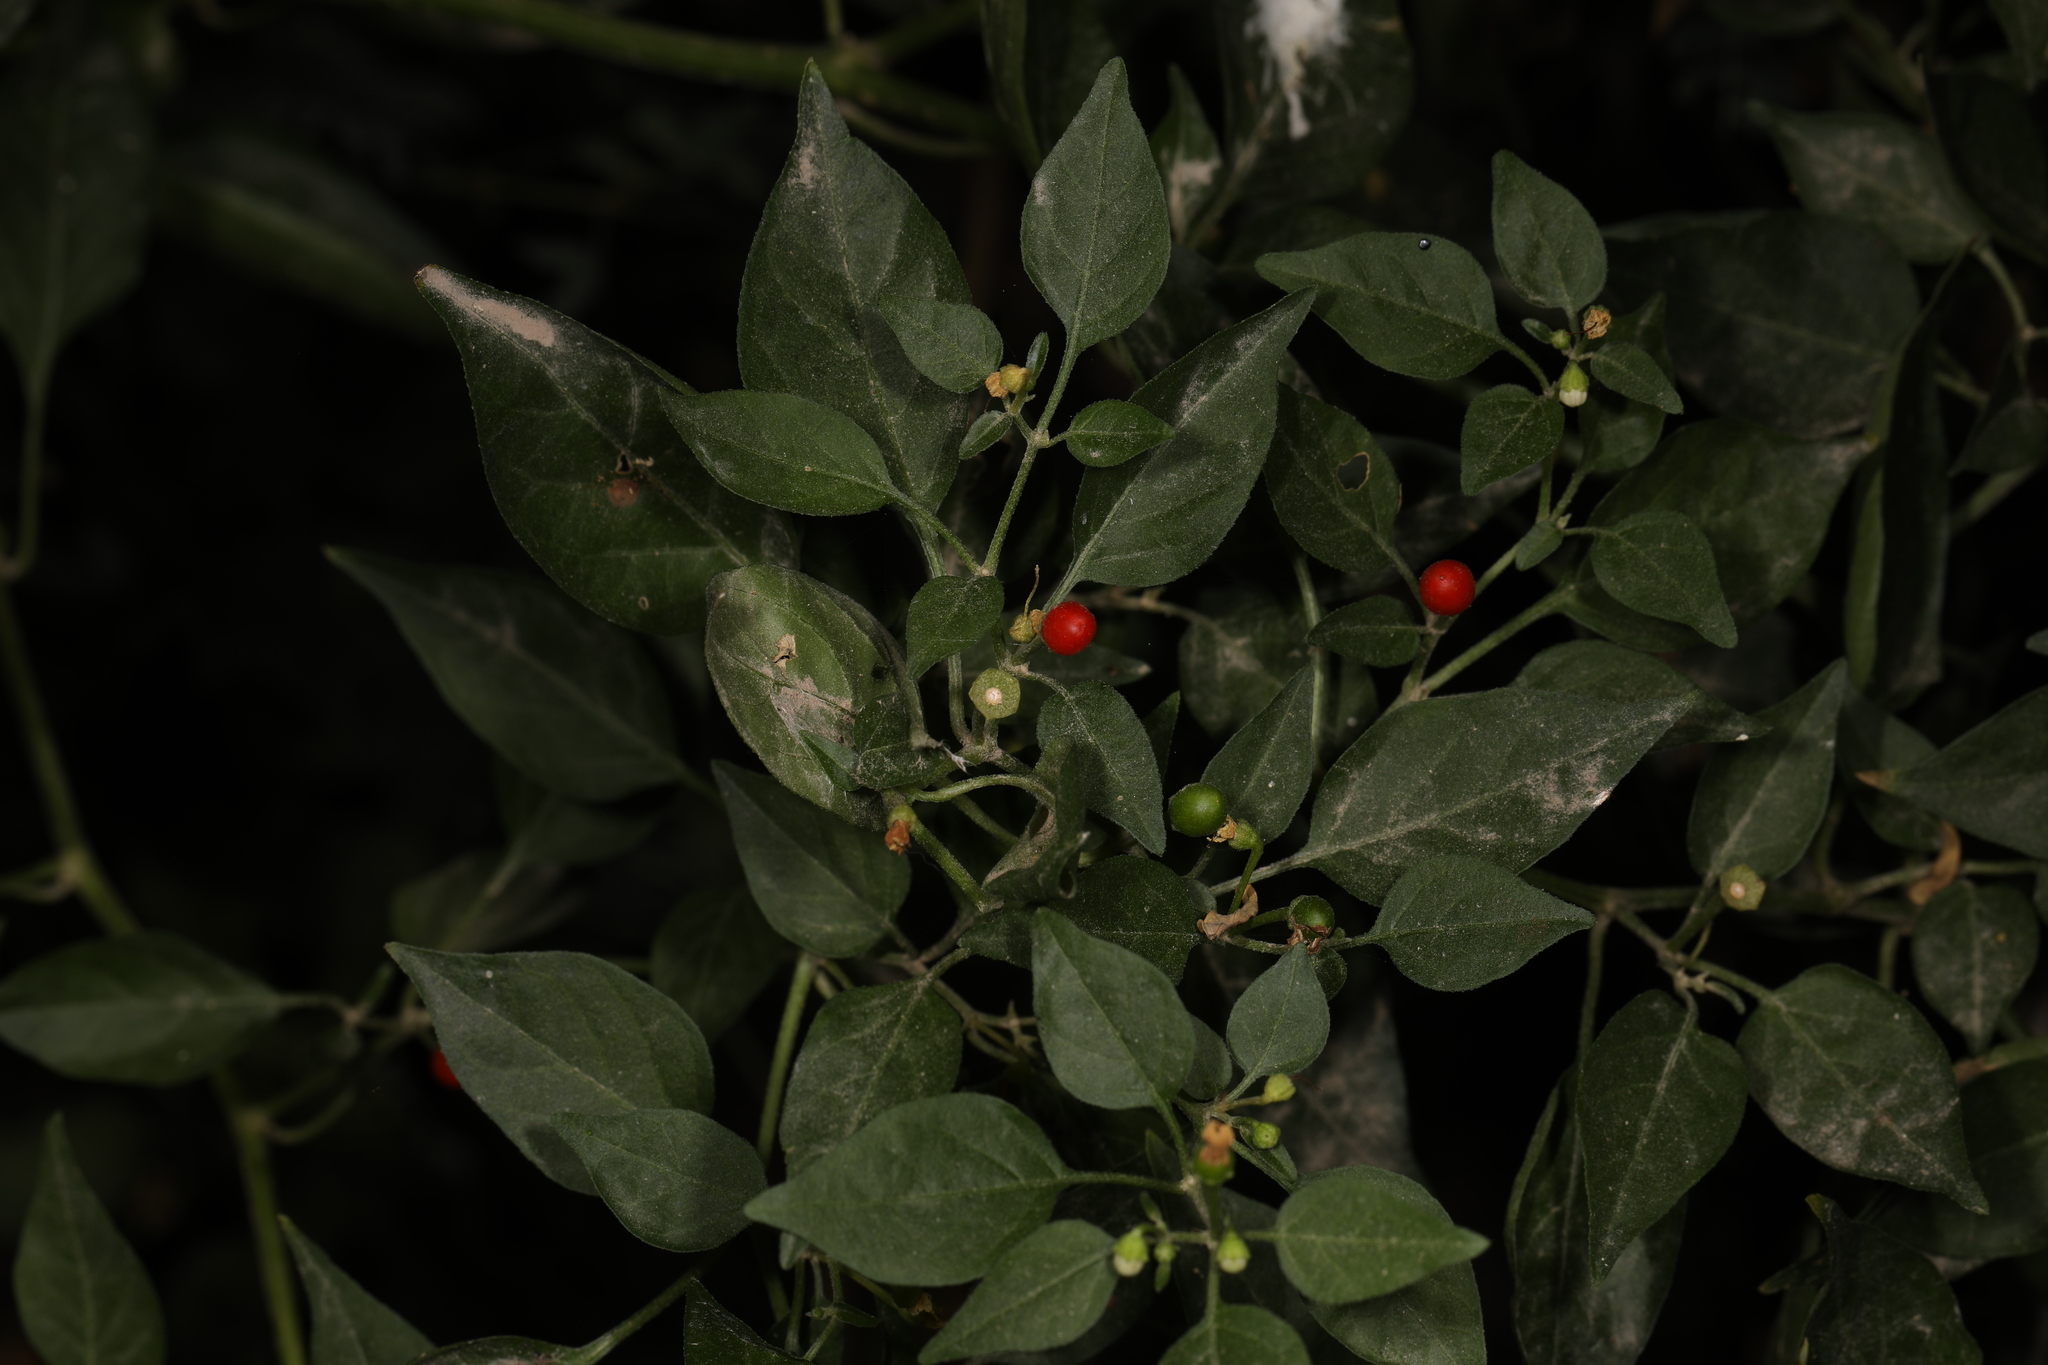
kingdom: Plantae
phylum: Tracheophyta
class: Magnoliopsida
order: Solanales
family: Solanaceae
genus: Capsicum
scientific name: Capsicum annuum
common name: Sweet pepper
